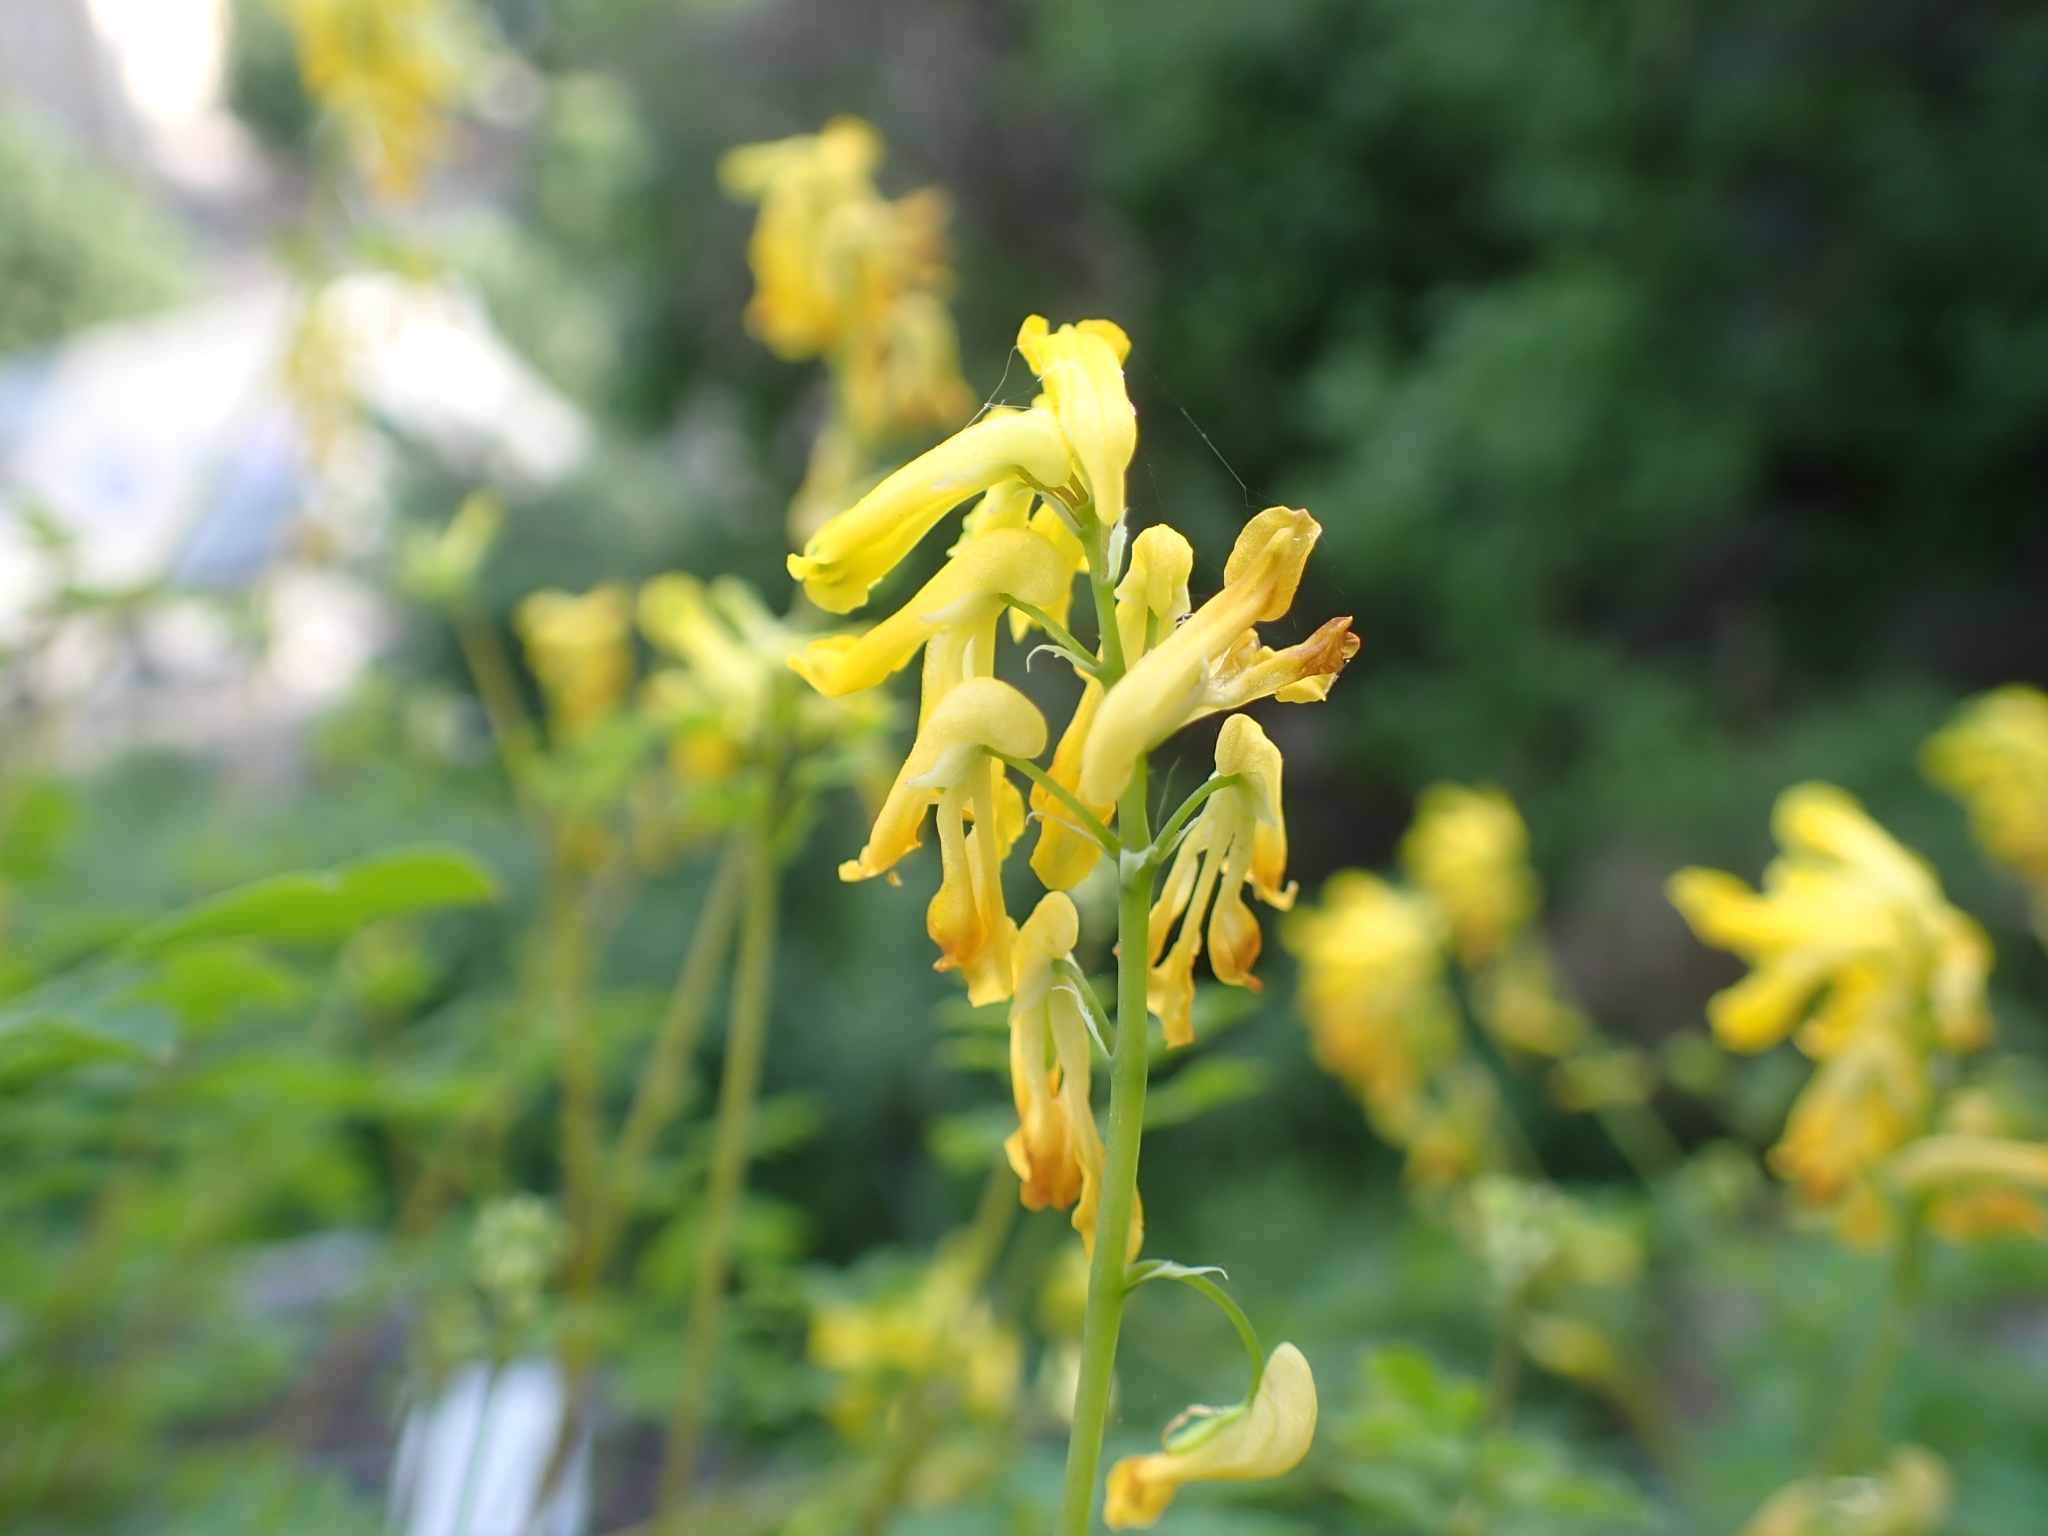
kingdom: Plantae
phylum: Tracheophyta
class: Magnoliopsida
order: Ranunculales
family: Papaveraceae
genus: Pseudofumaria
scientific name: Pseudofumaria lutea
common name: Yellow corydalis
